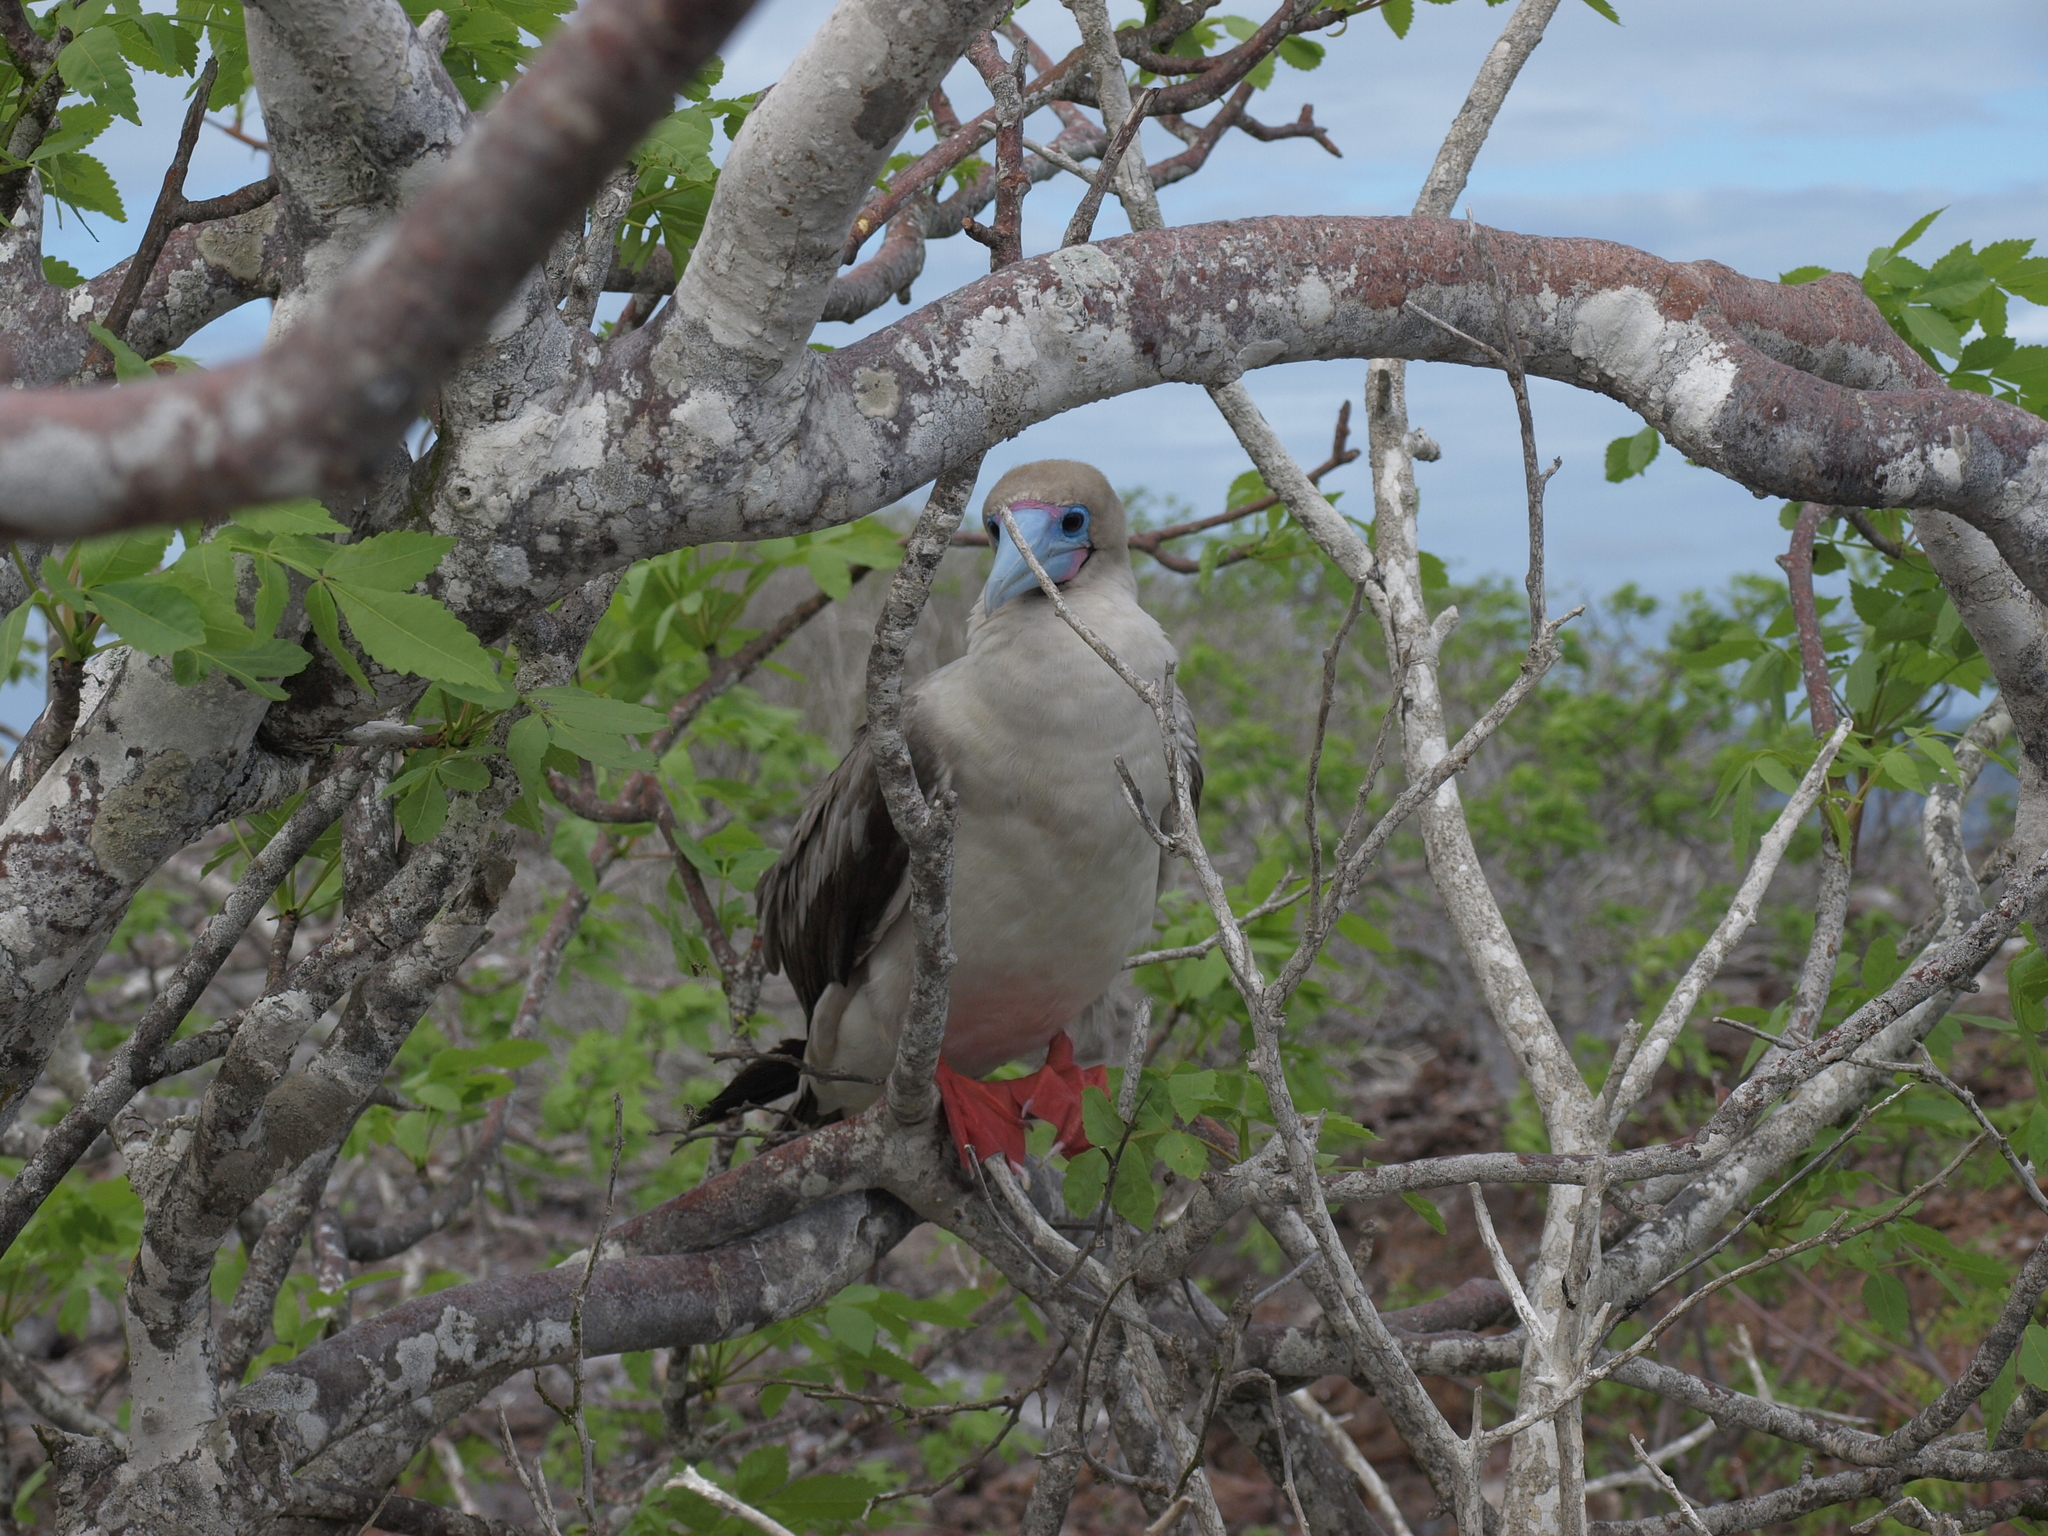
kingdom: Animalia
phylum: Chordata
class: Aves
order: Suliformes
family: Sulidae
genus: Sula
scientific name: Sula sula
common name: Red-footed booby
